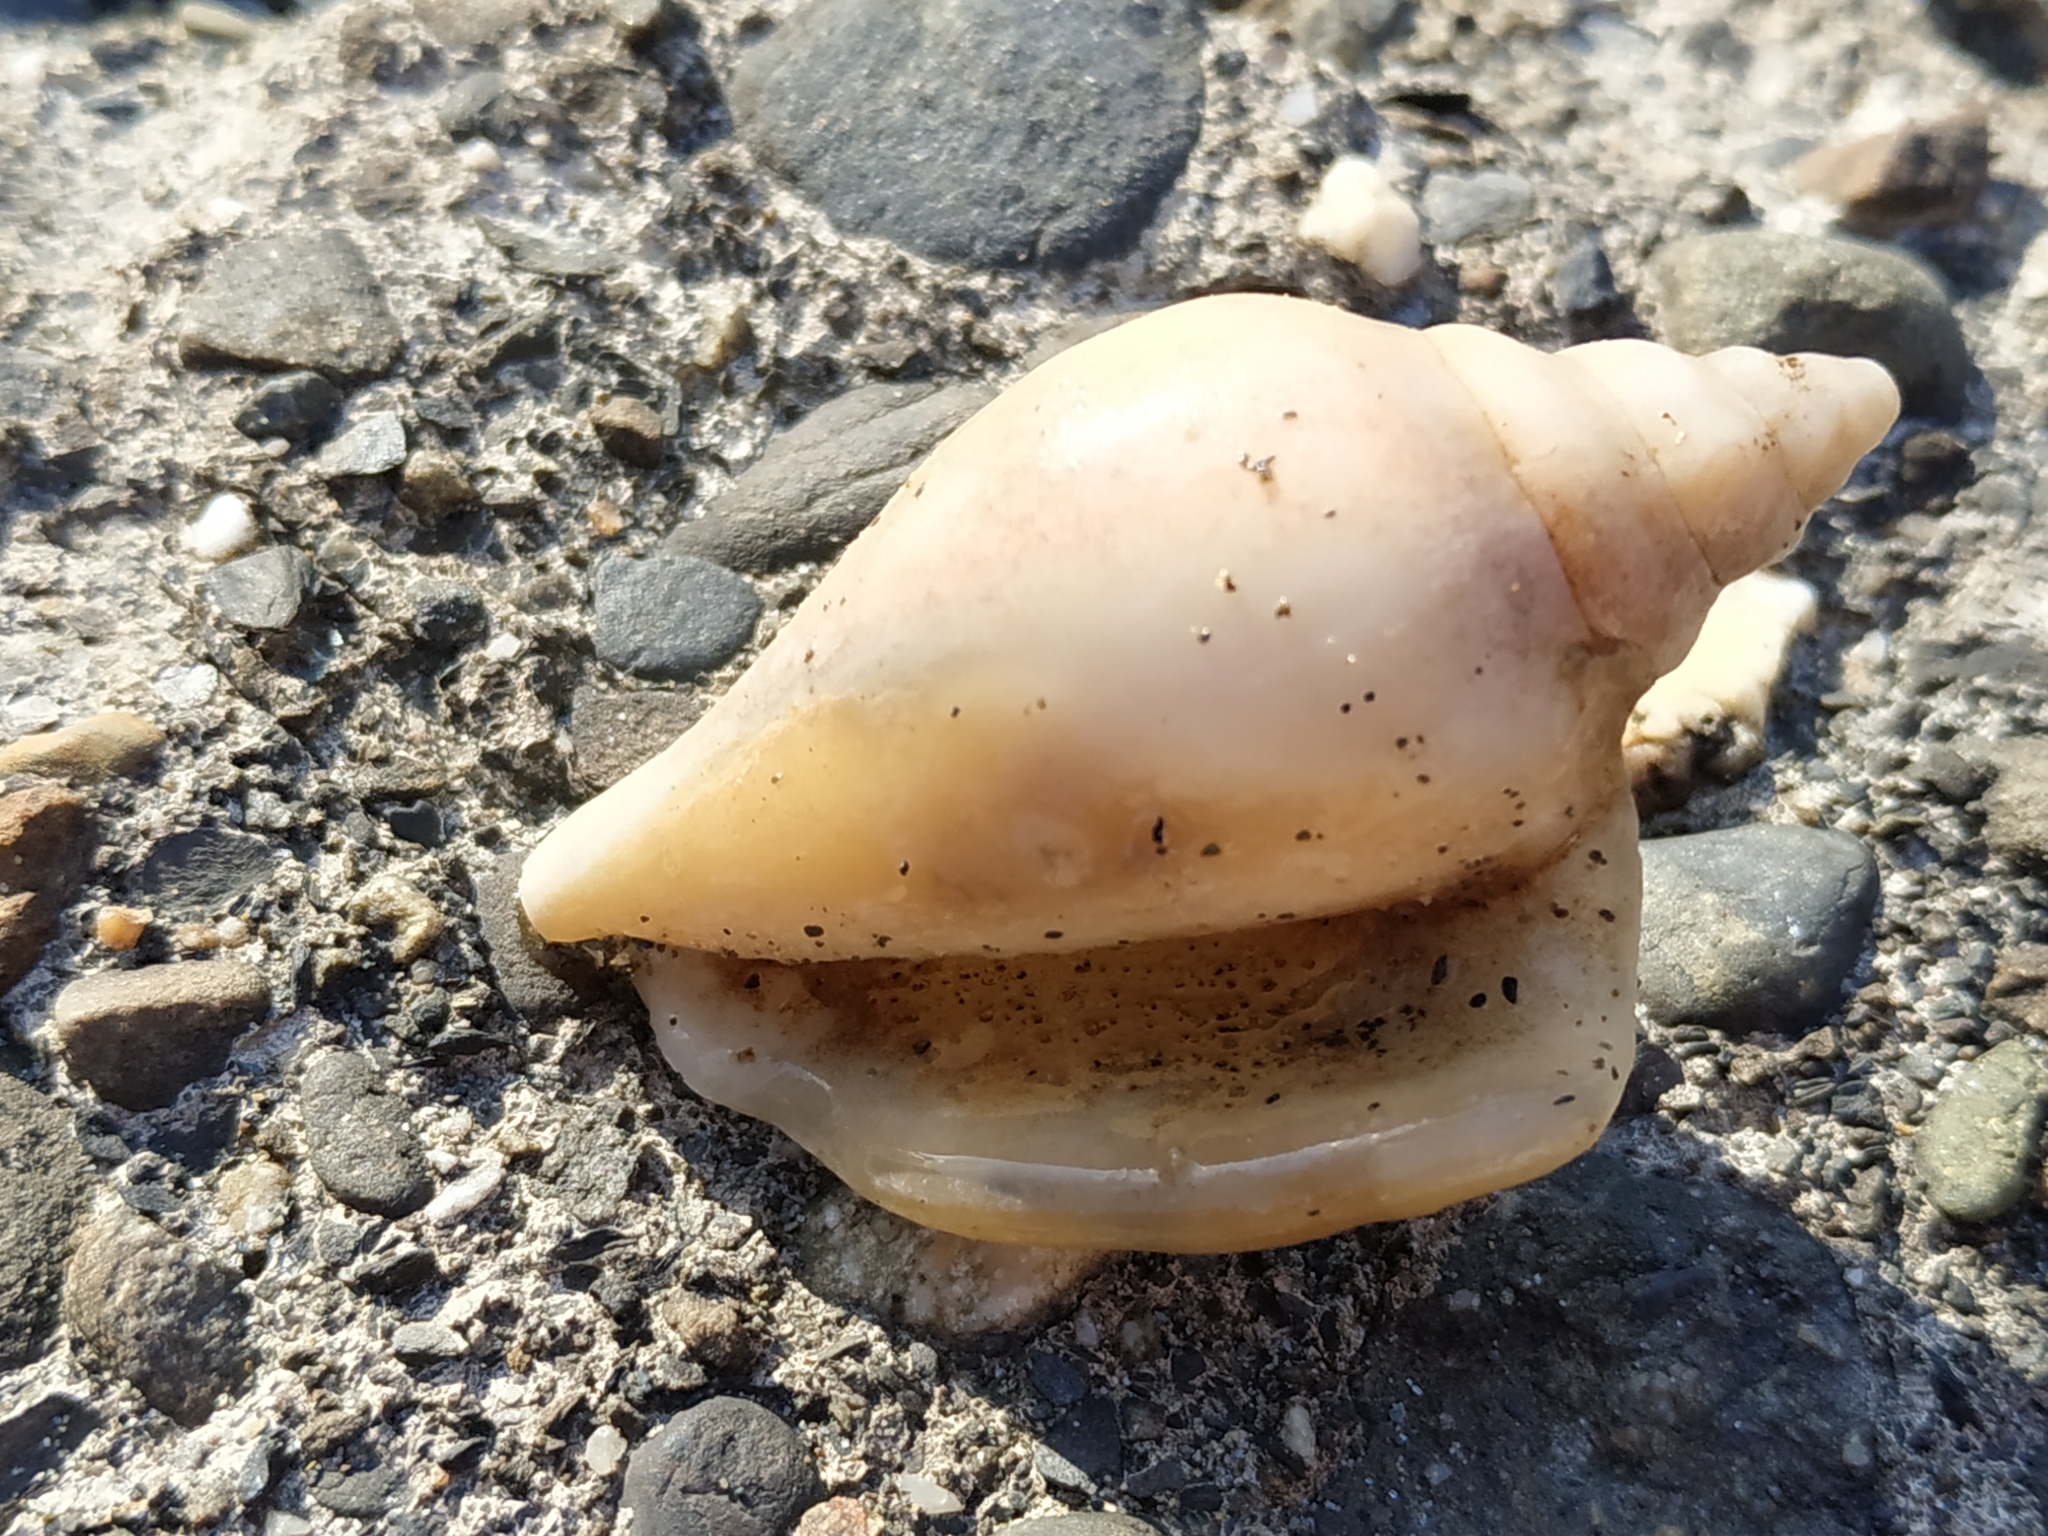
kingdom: Animalia
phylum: Mollusca
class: Gastropoda
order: Littorinimorpha
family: Strombidae
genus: Laevistrombus
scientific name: Laevistrombus canarium
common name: Dog conch
